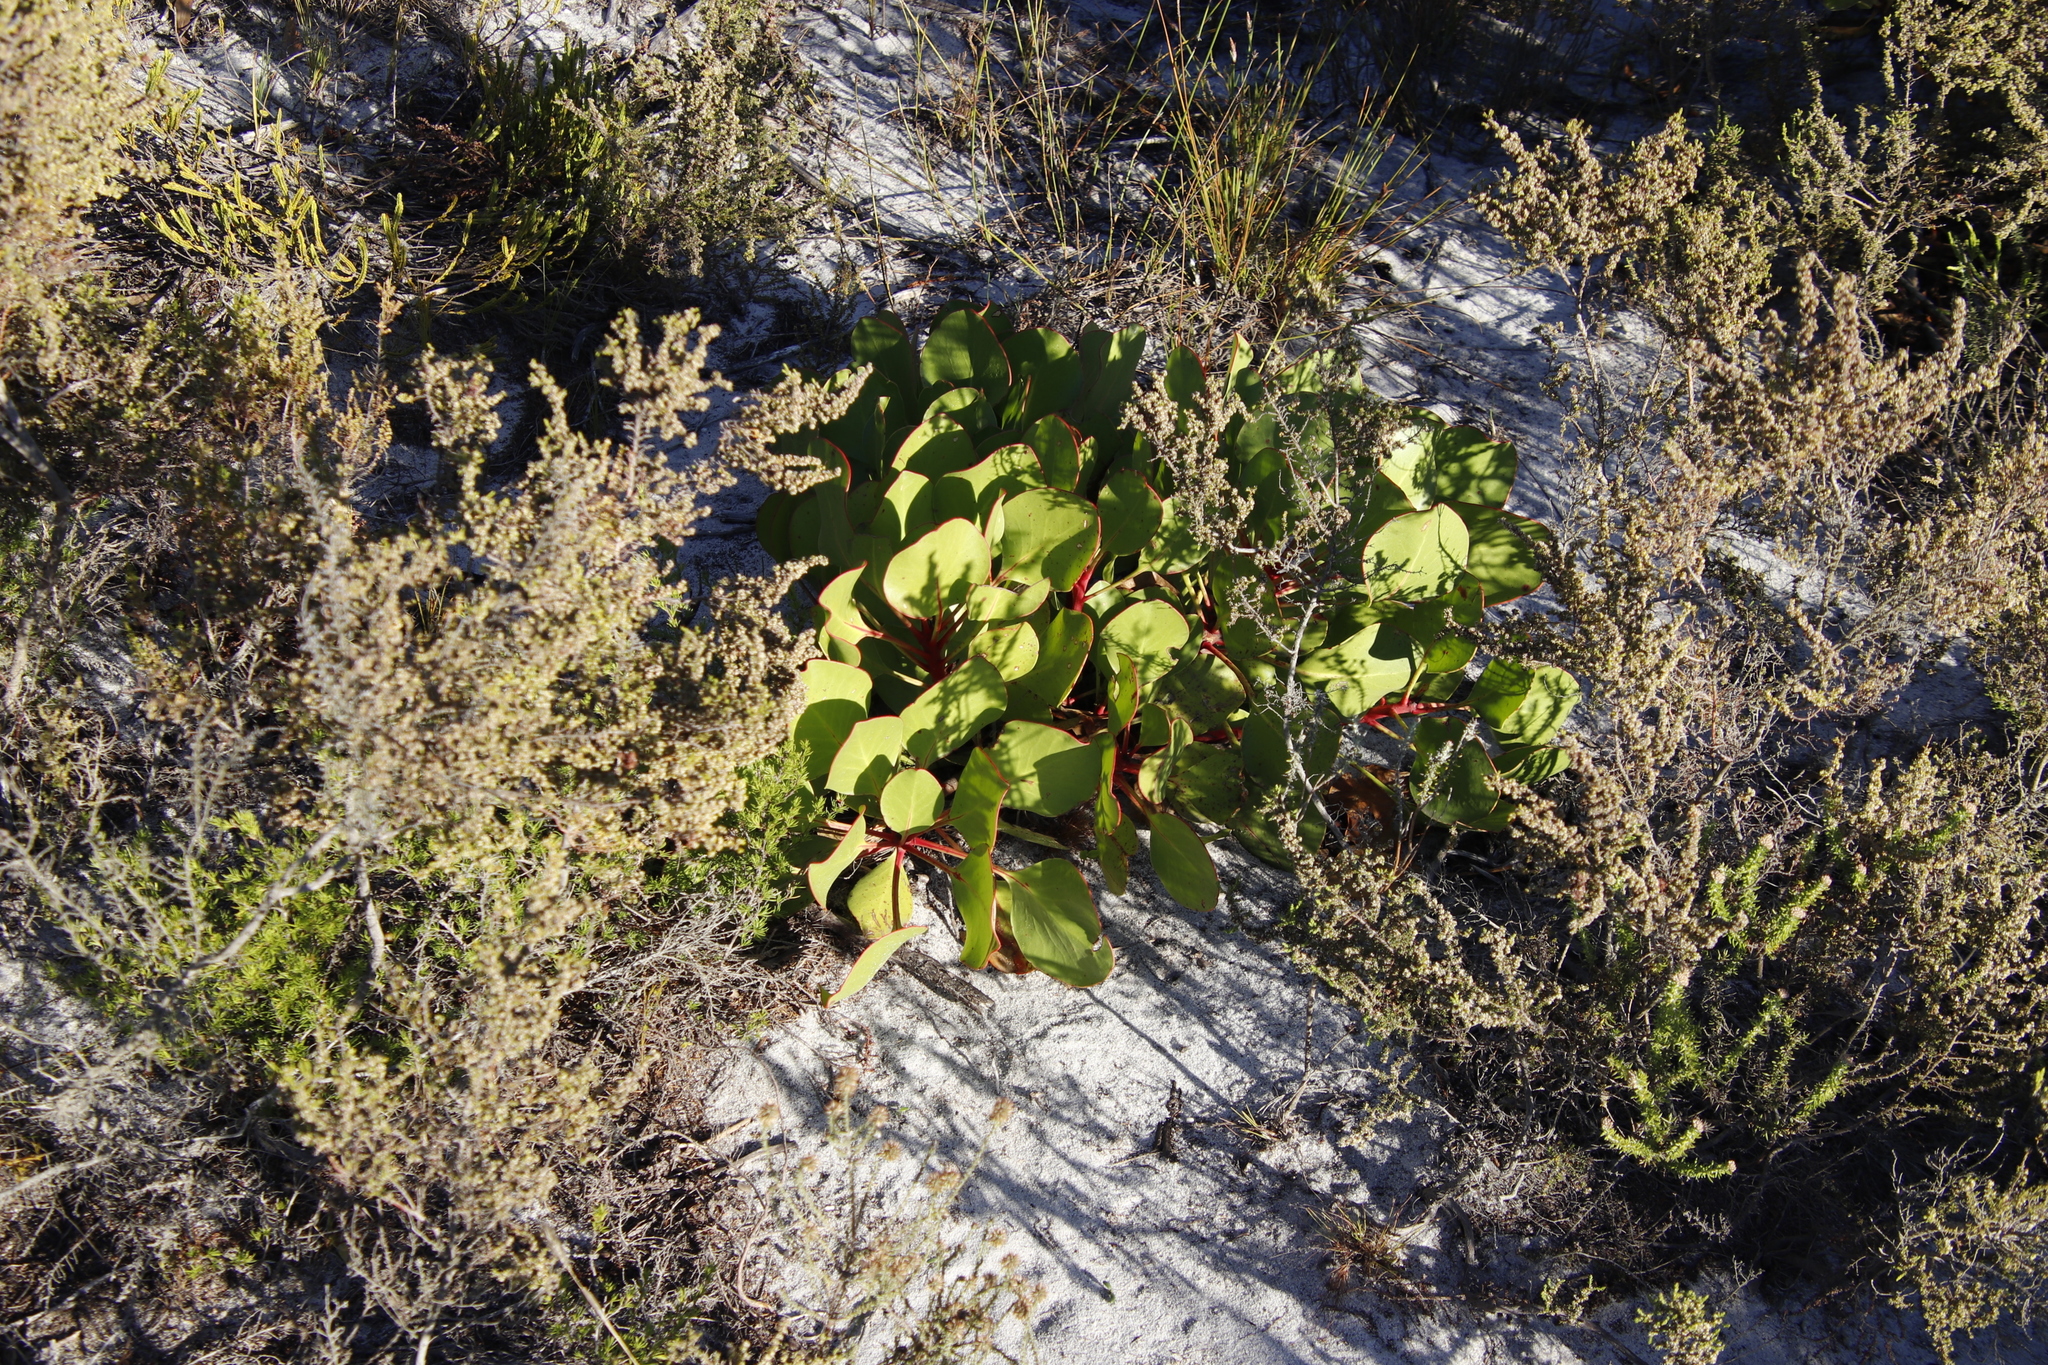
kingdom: Plantae
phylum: Tracheophyta
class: Magnoliopsida
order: Proteales
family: Proteaceae
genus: Protea
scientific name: Protea cynaroides
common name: King protea
